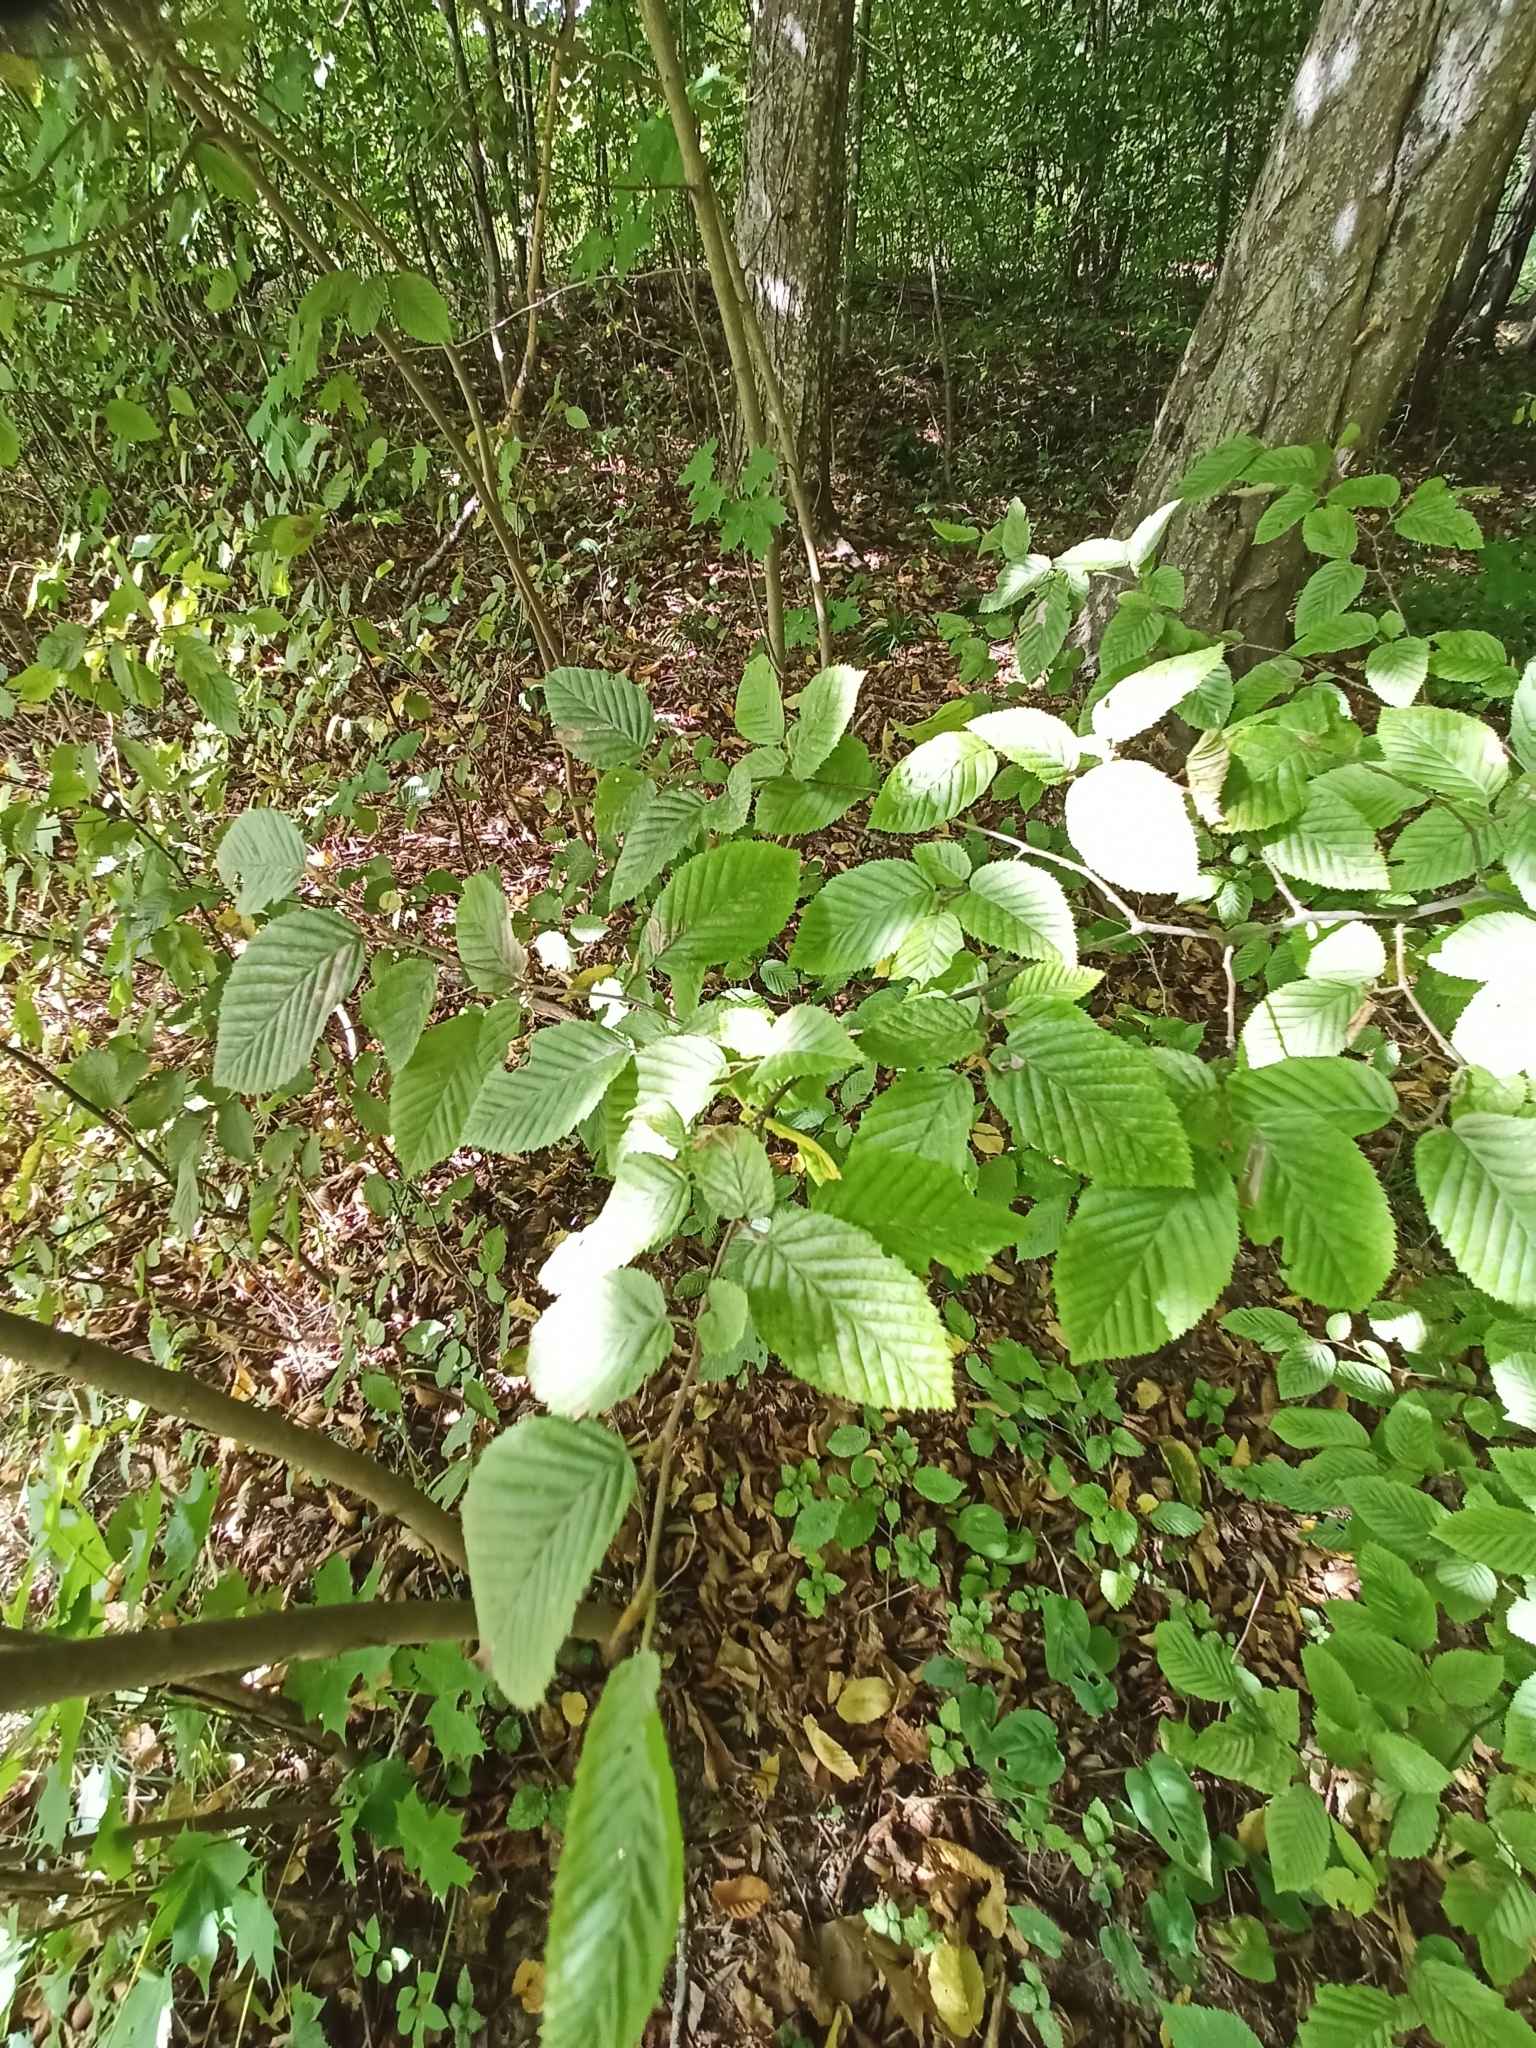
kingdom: Plantae
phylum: Tracheophyta
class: Magnoliopsida
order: Fagales
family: Betulaceae
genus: Carpinus
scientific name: Carpinus betulus
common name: Hornbeam
